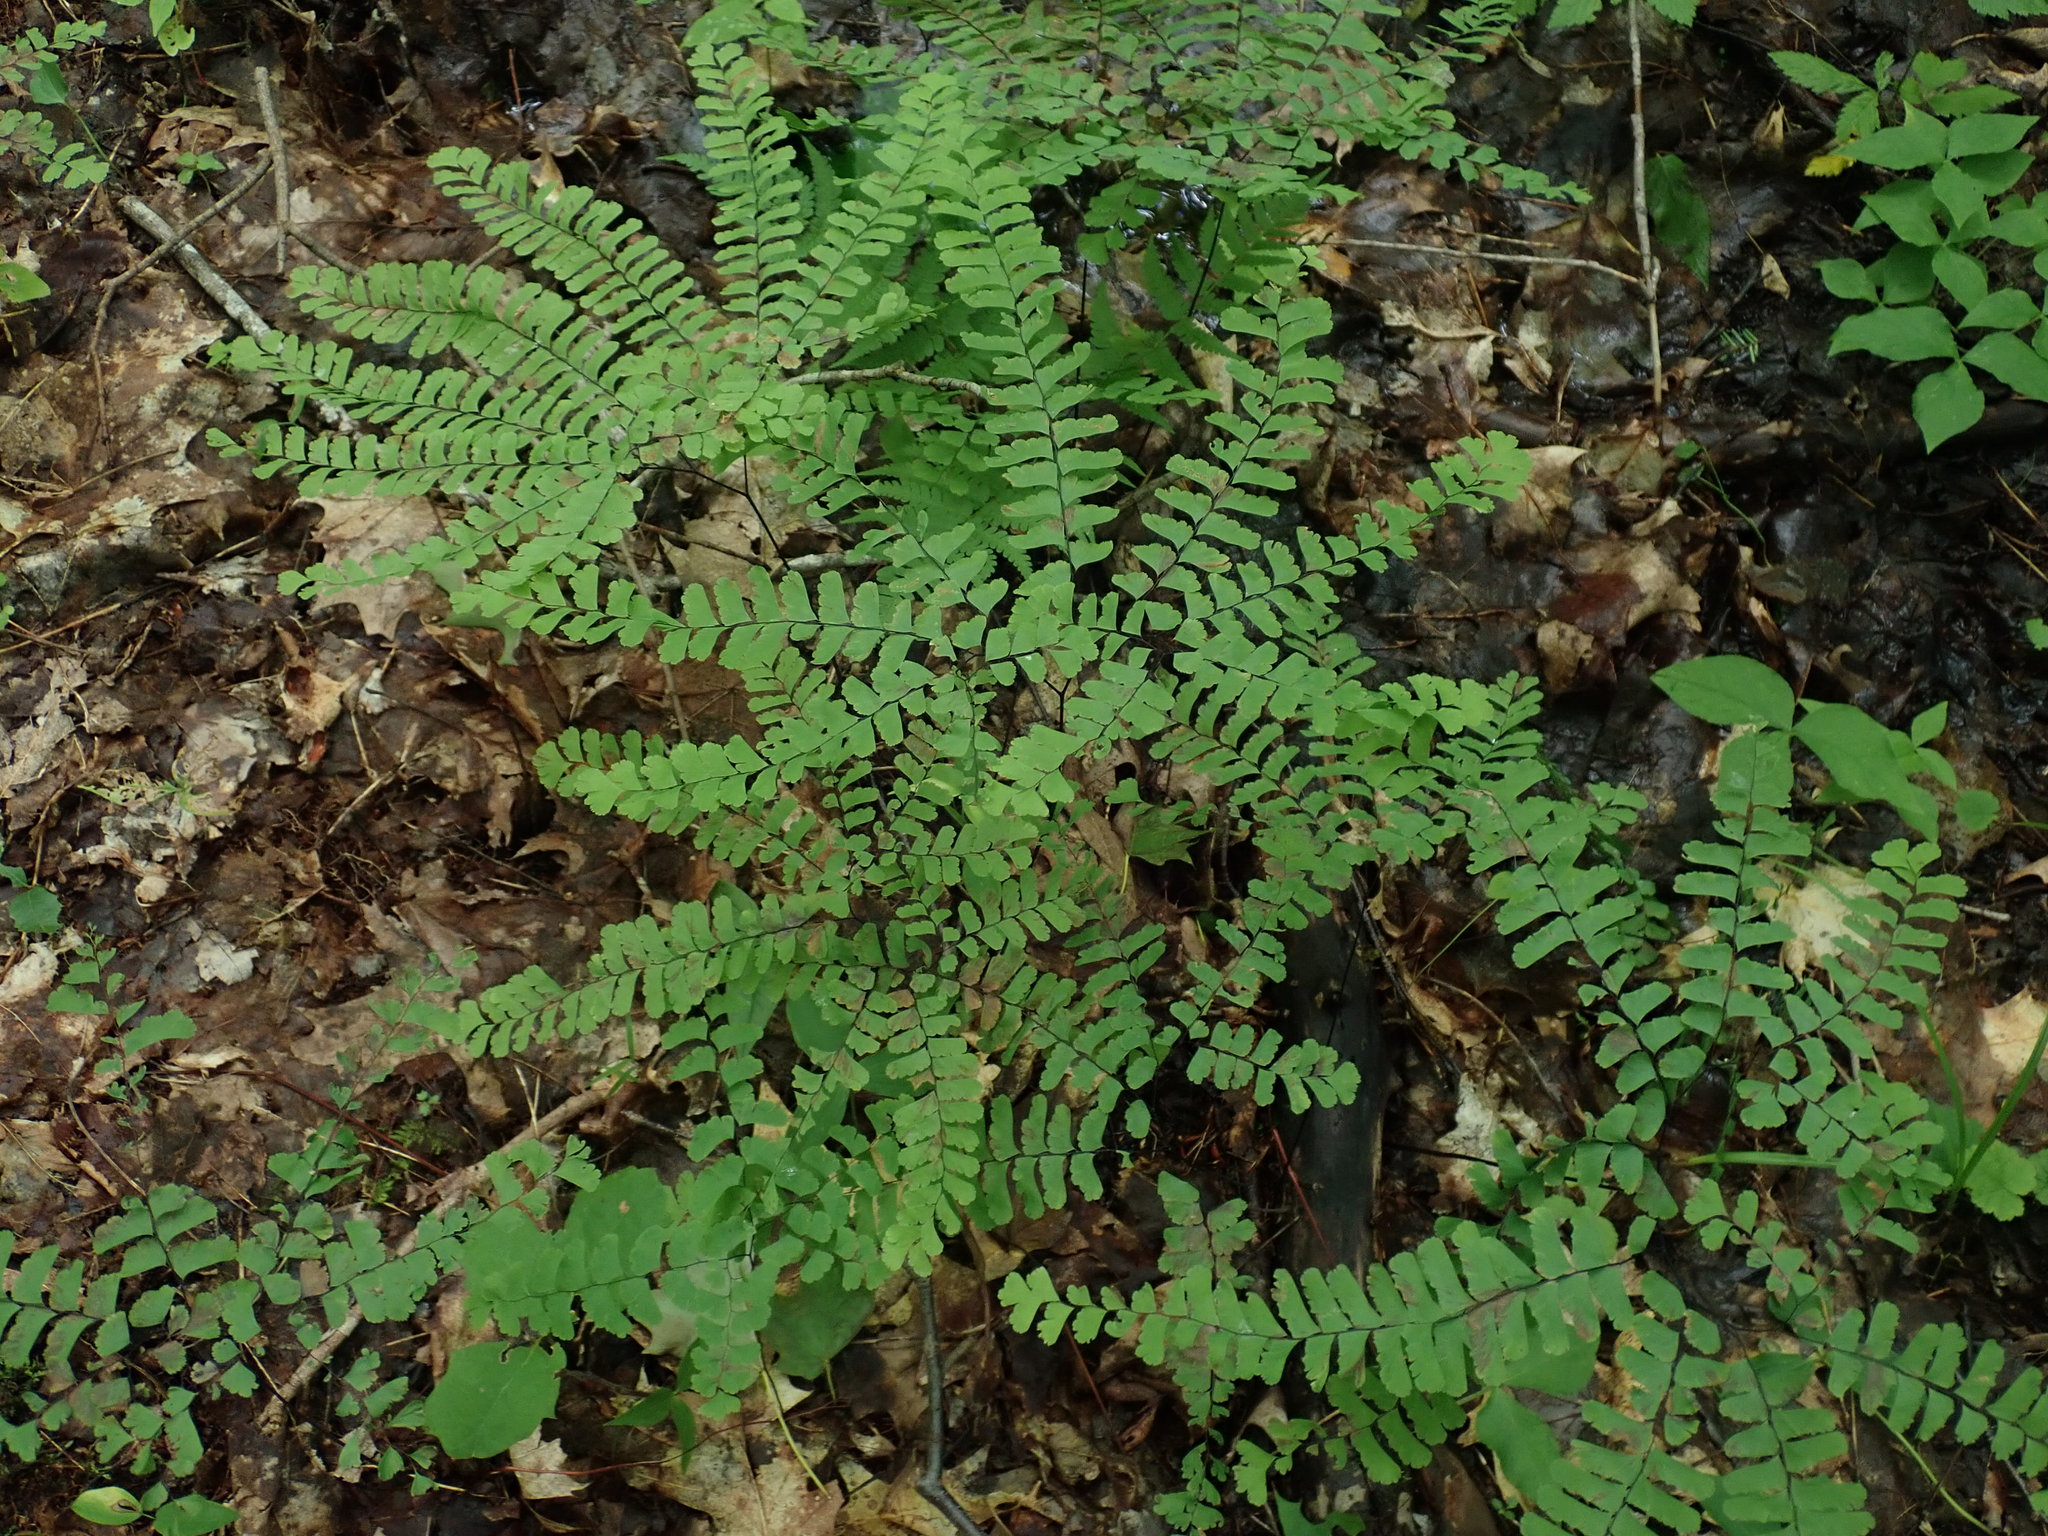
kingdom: Plantae
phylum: Tracheophyta
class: Polypodiopsida
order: Polypodiales
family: Pteridaceae
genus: Adiantum
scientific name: Adiantum pedatum
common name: Five-finger fern
